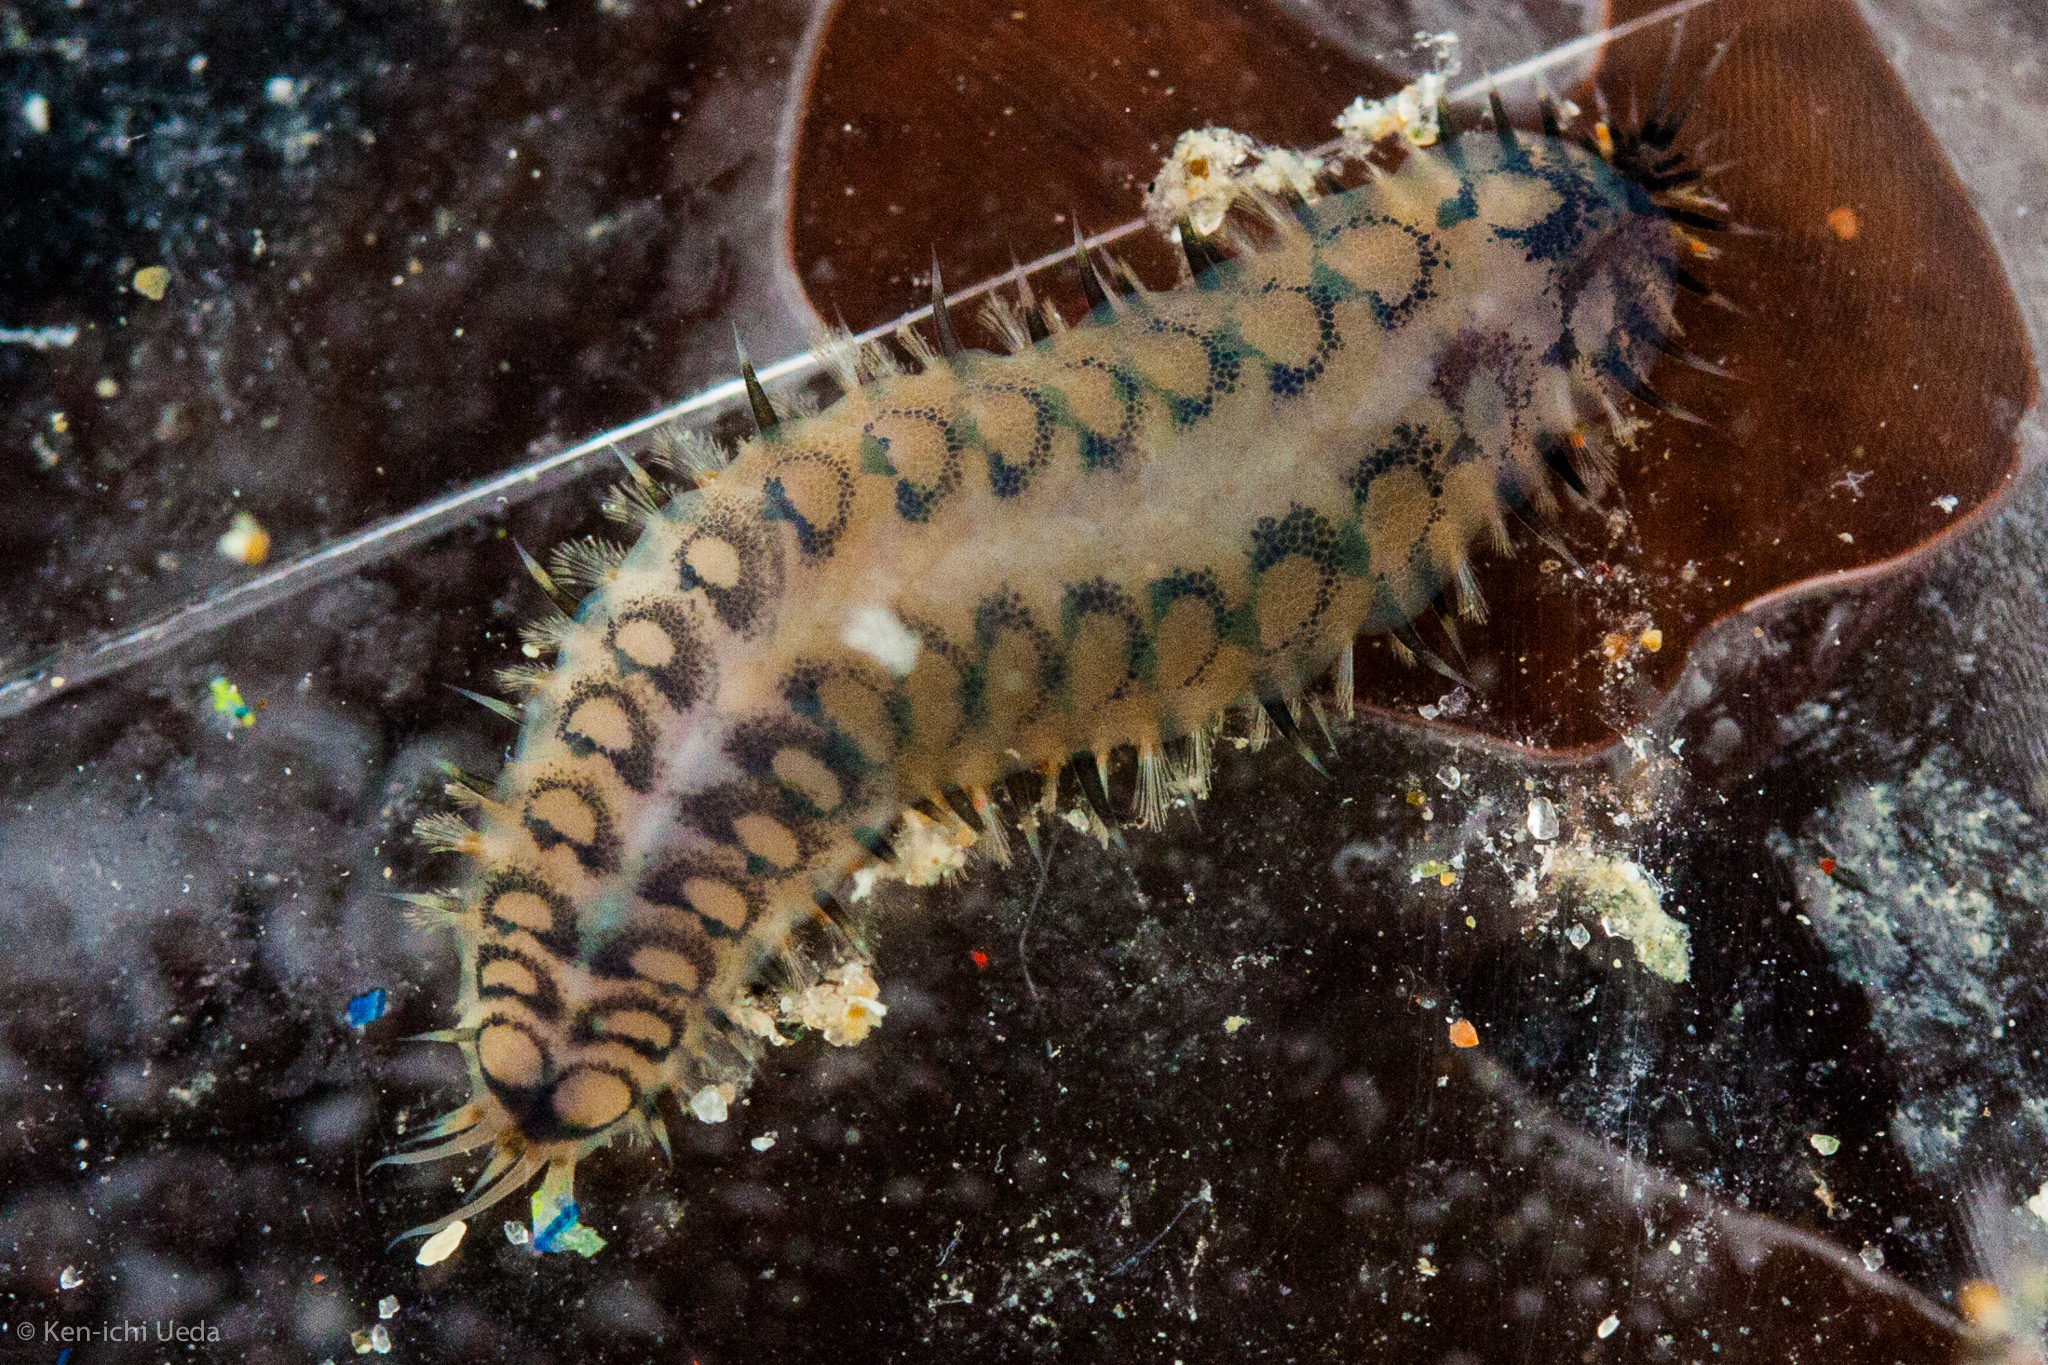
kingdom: Animalia
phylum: Annelida
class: Polychaeta
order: Phyllodocida
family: Polynoidae
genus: Malmgreniella
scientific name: Malmgreniella nigralba
